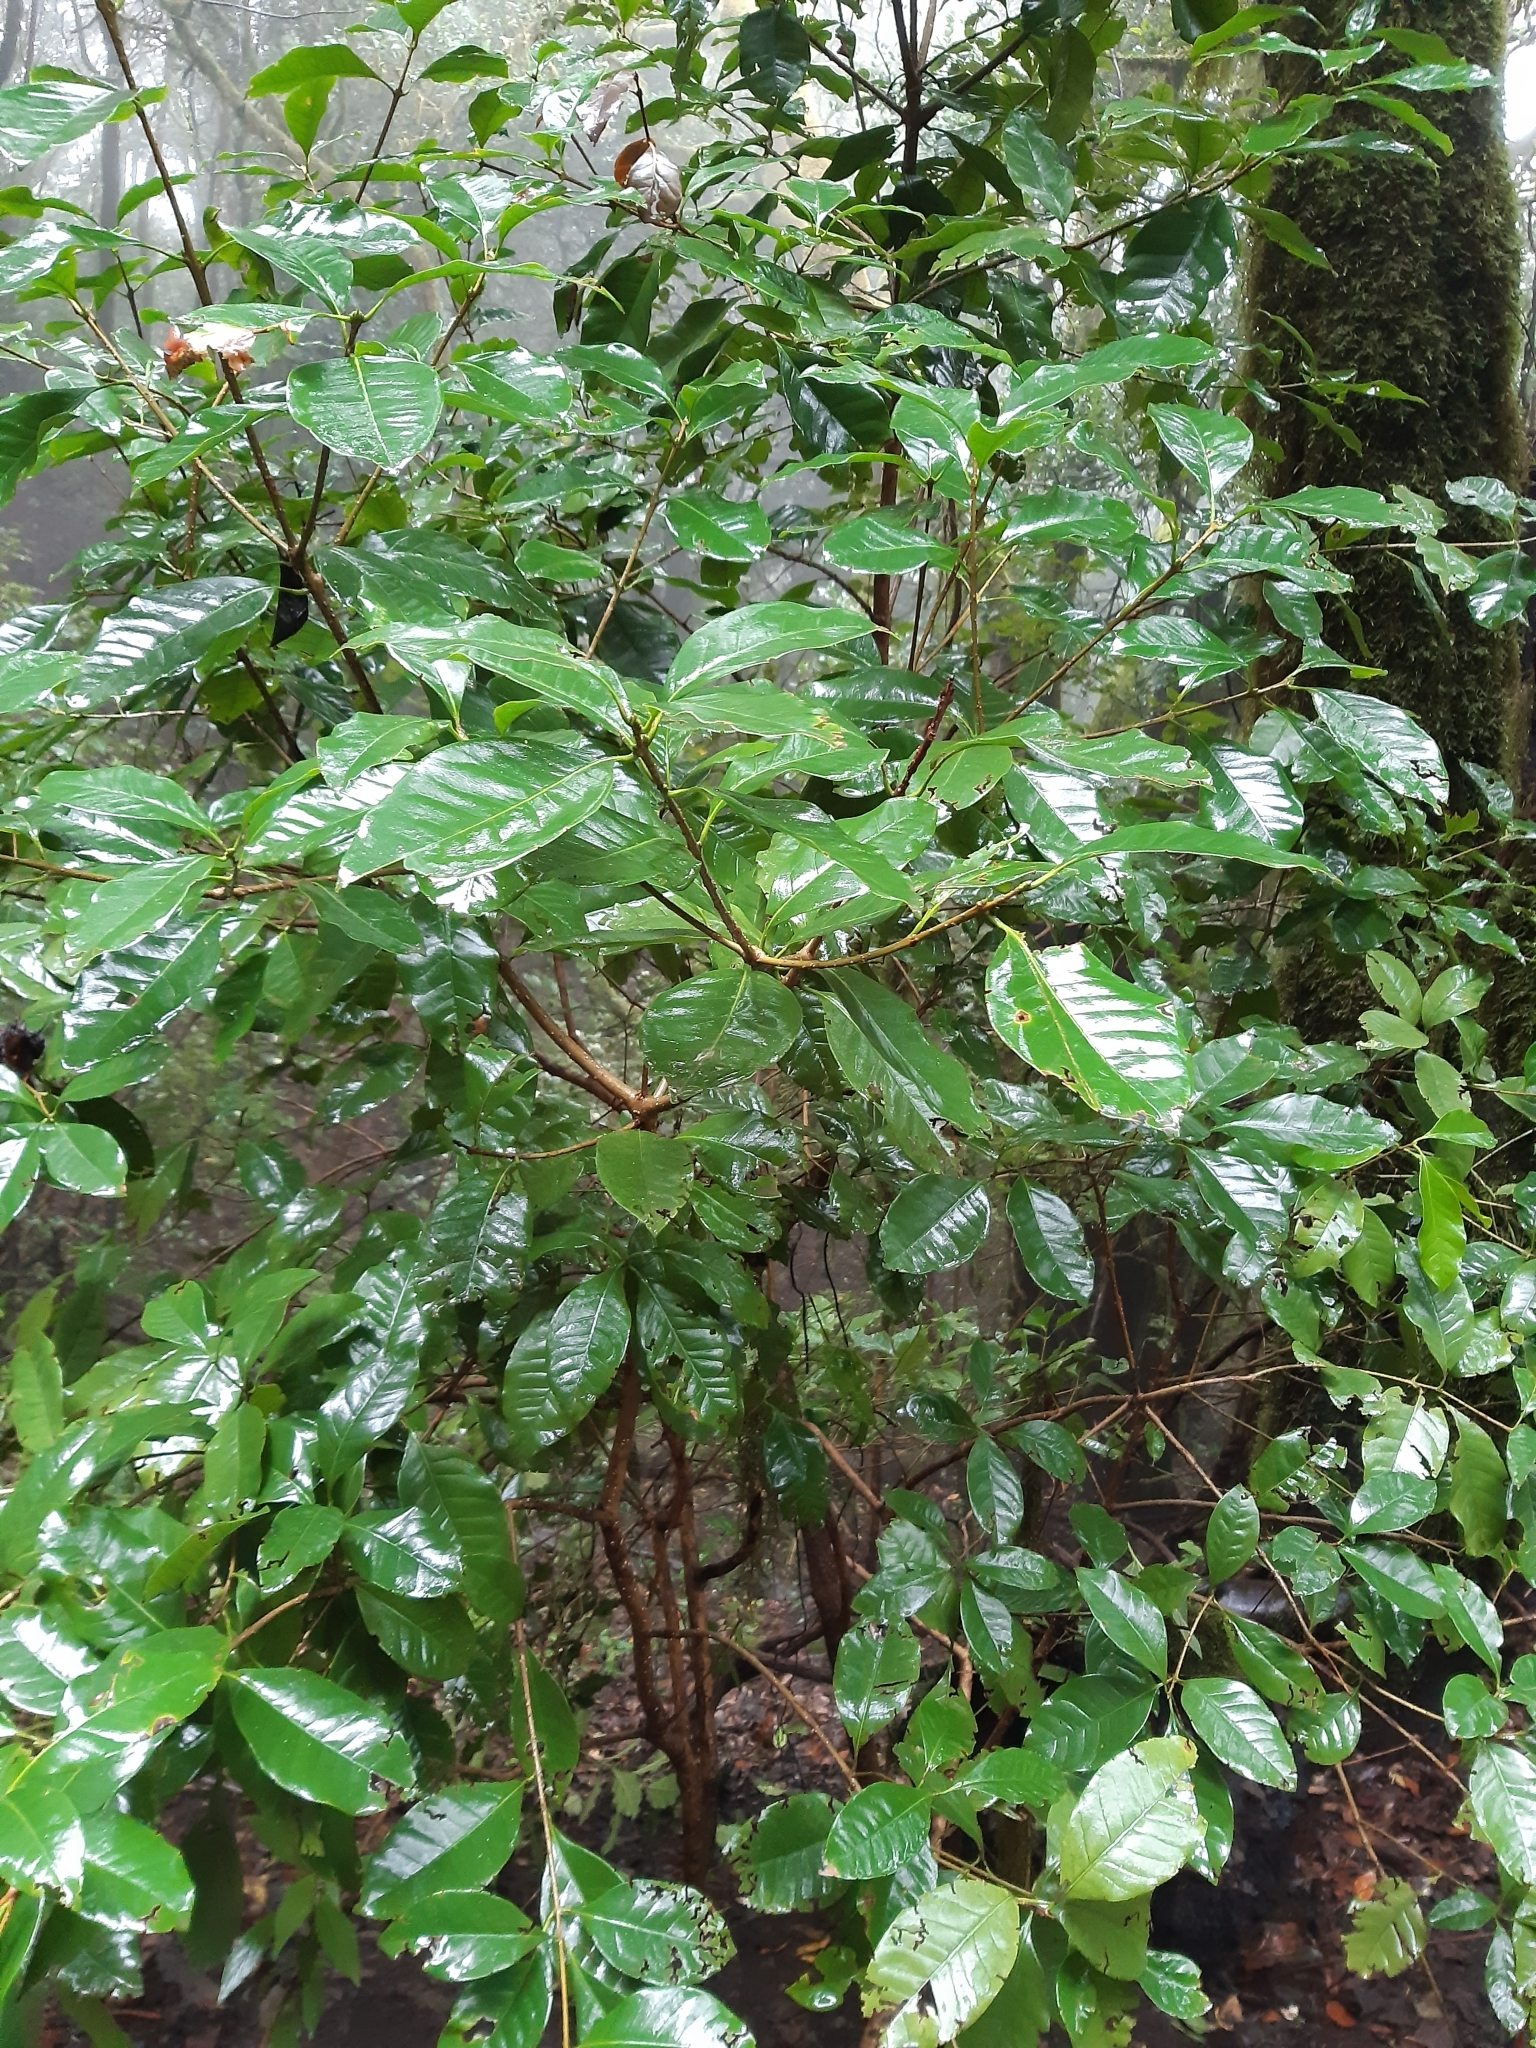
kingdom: Plantae
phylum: Tracheophyta
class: Magnoliopsida
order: Lamiales
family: Oleaceae
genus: Picconia
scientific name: Picconia excelsa
